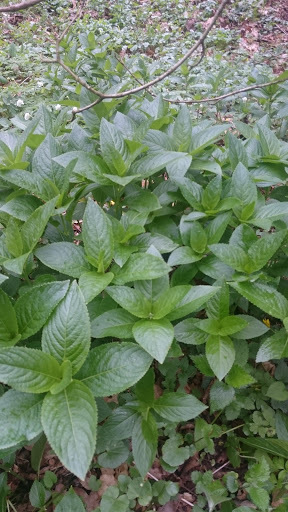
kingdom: Plantae
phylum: Tracheophyta
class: Magnoliopsida
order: Malpighiales
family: Euphorbiaceae
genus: Mercurialis
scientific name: Mercurialis perennis
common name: Dog mercury
